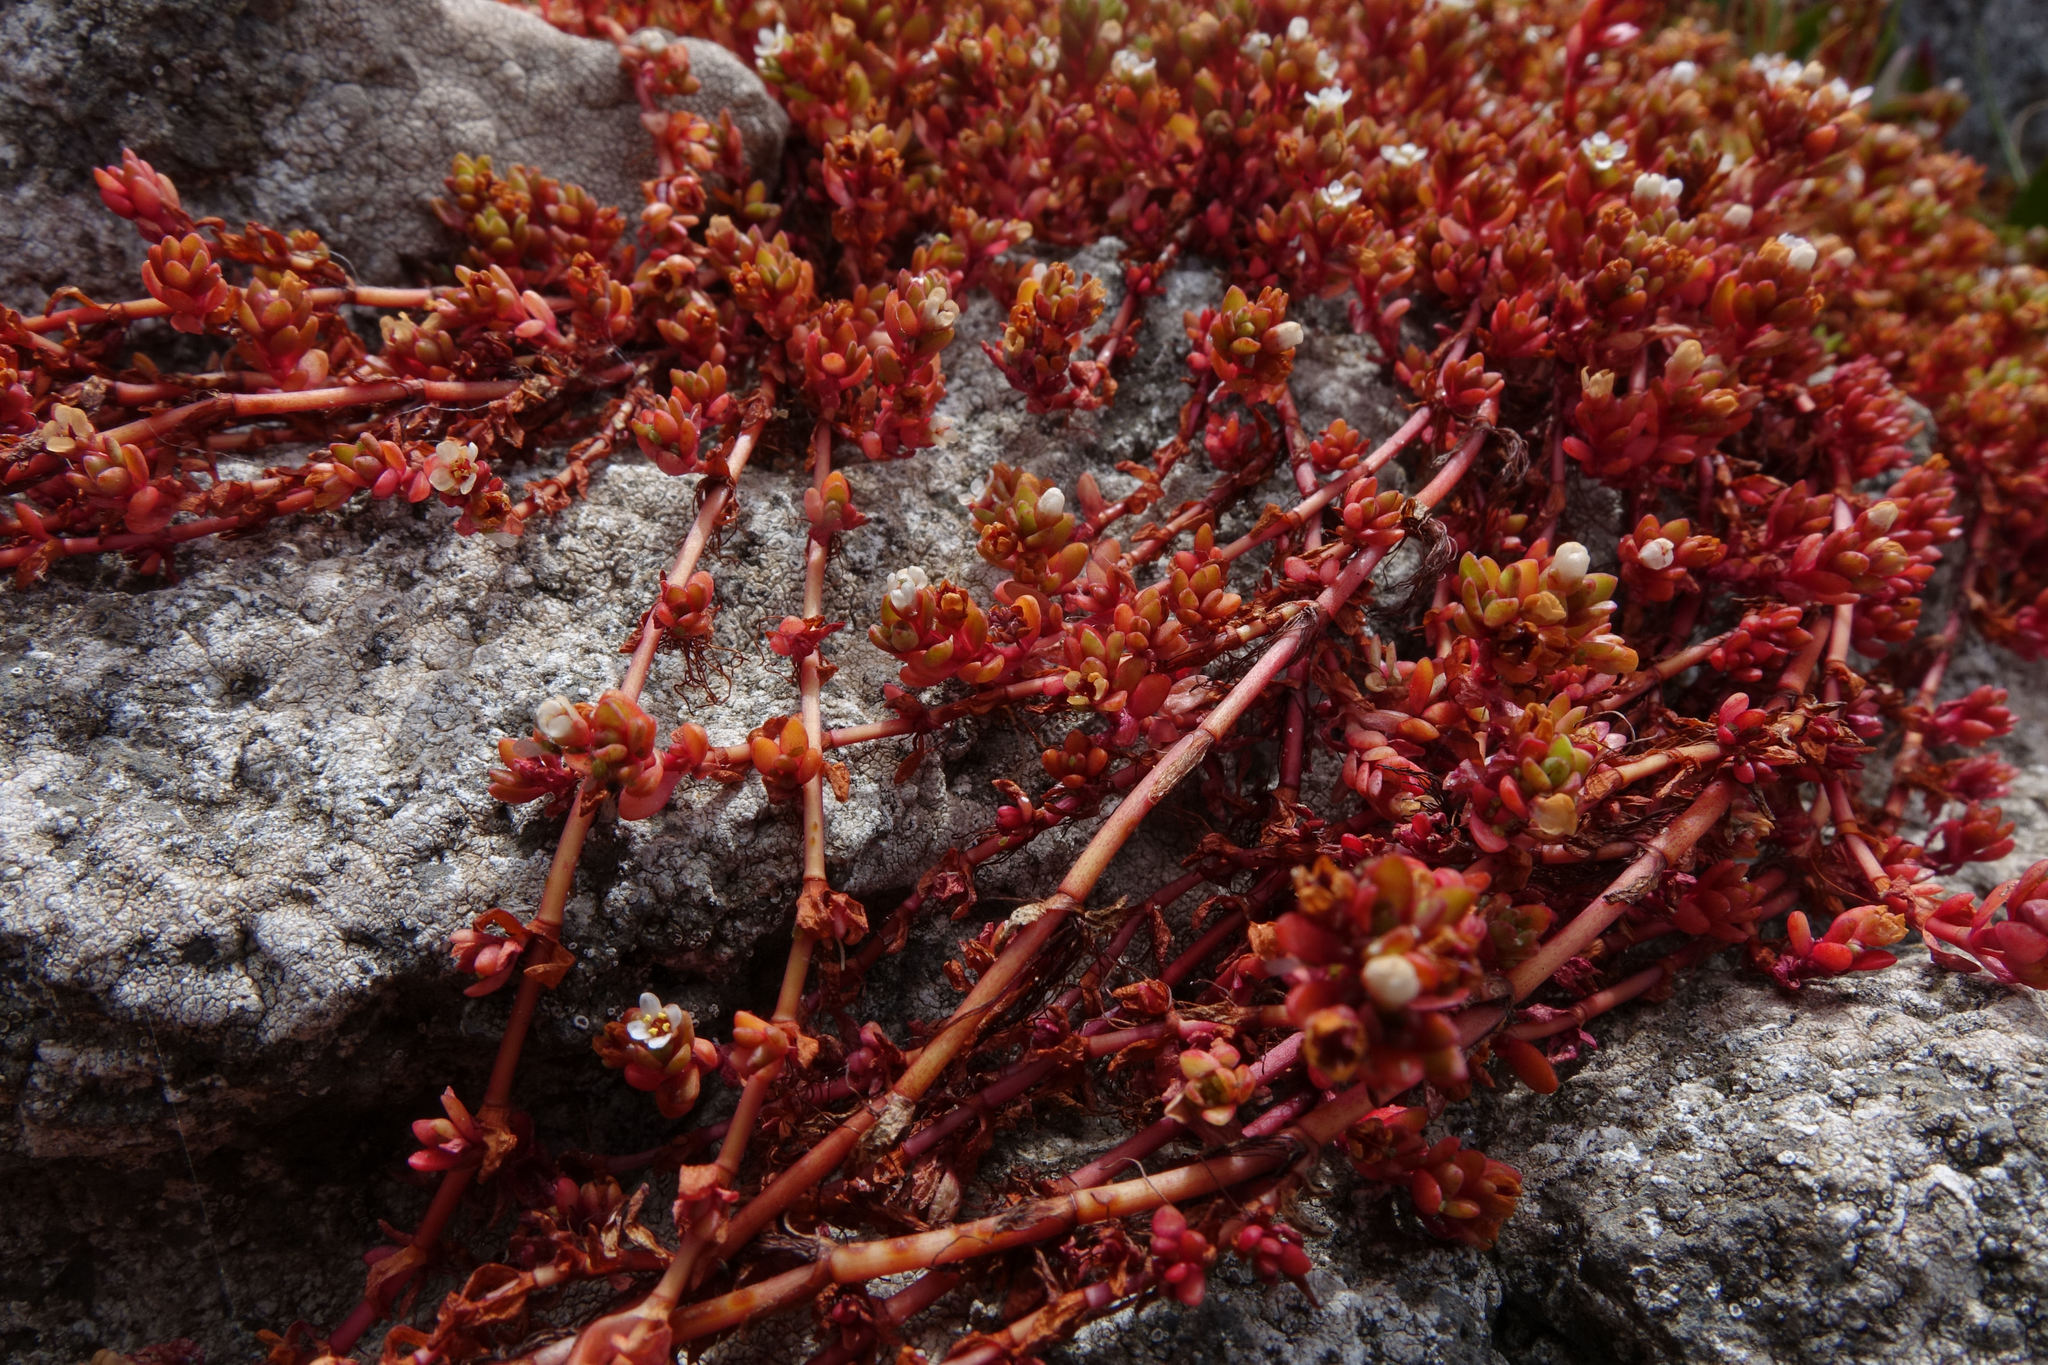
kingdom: Plantae
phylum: Tracheophyta
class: Magnoliopsida
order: Saxifragales
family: Crassulaceae
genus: Crassula
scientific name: Crassula moschata
